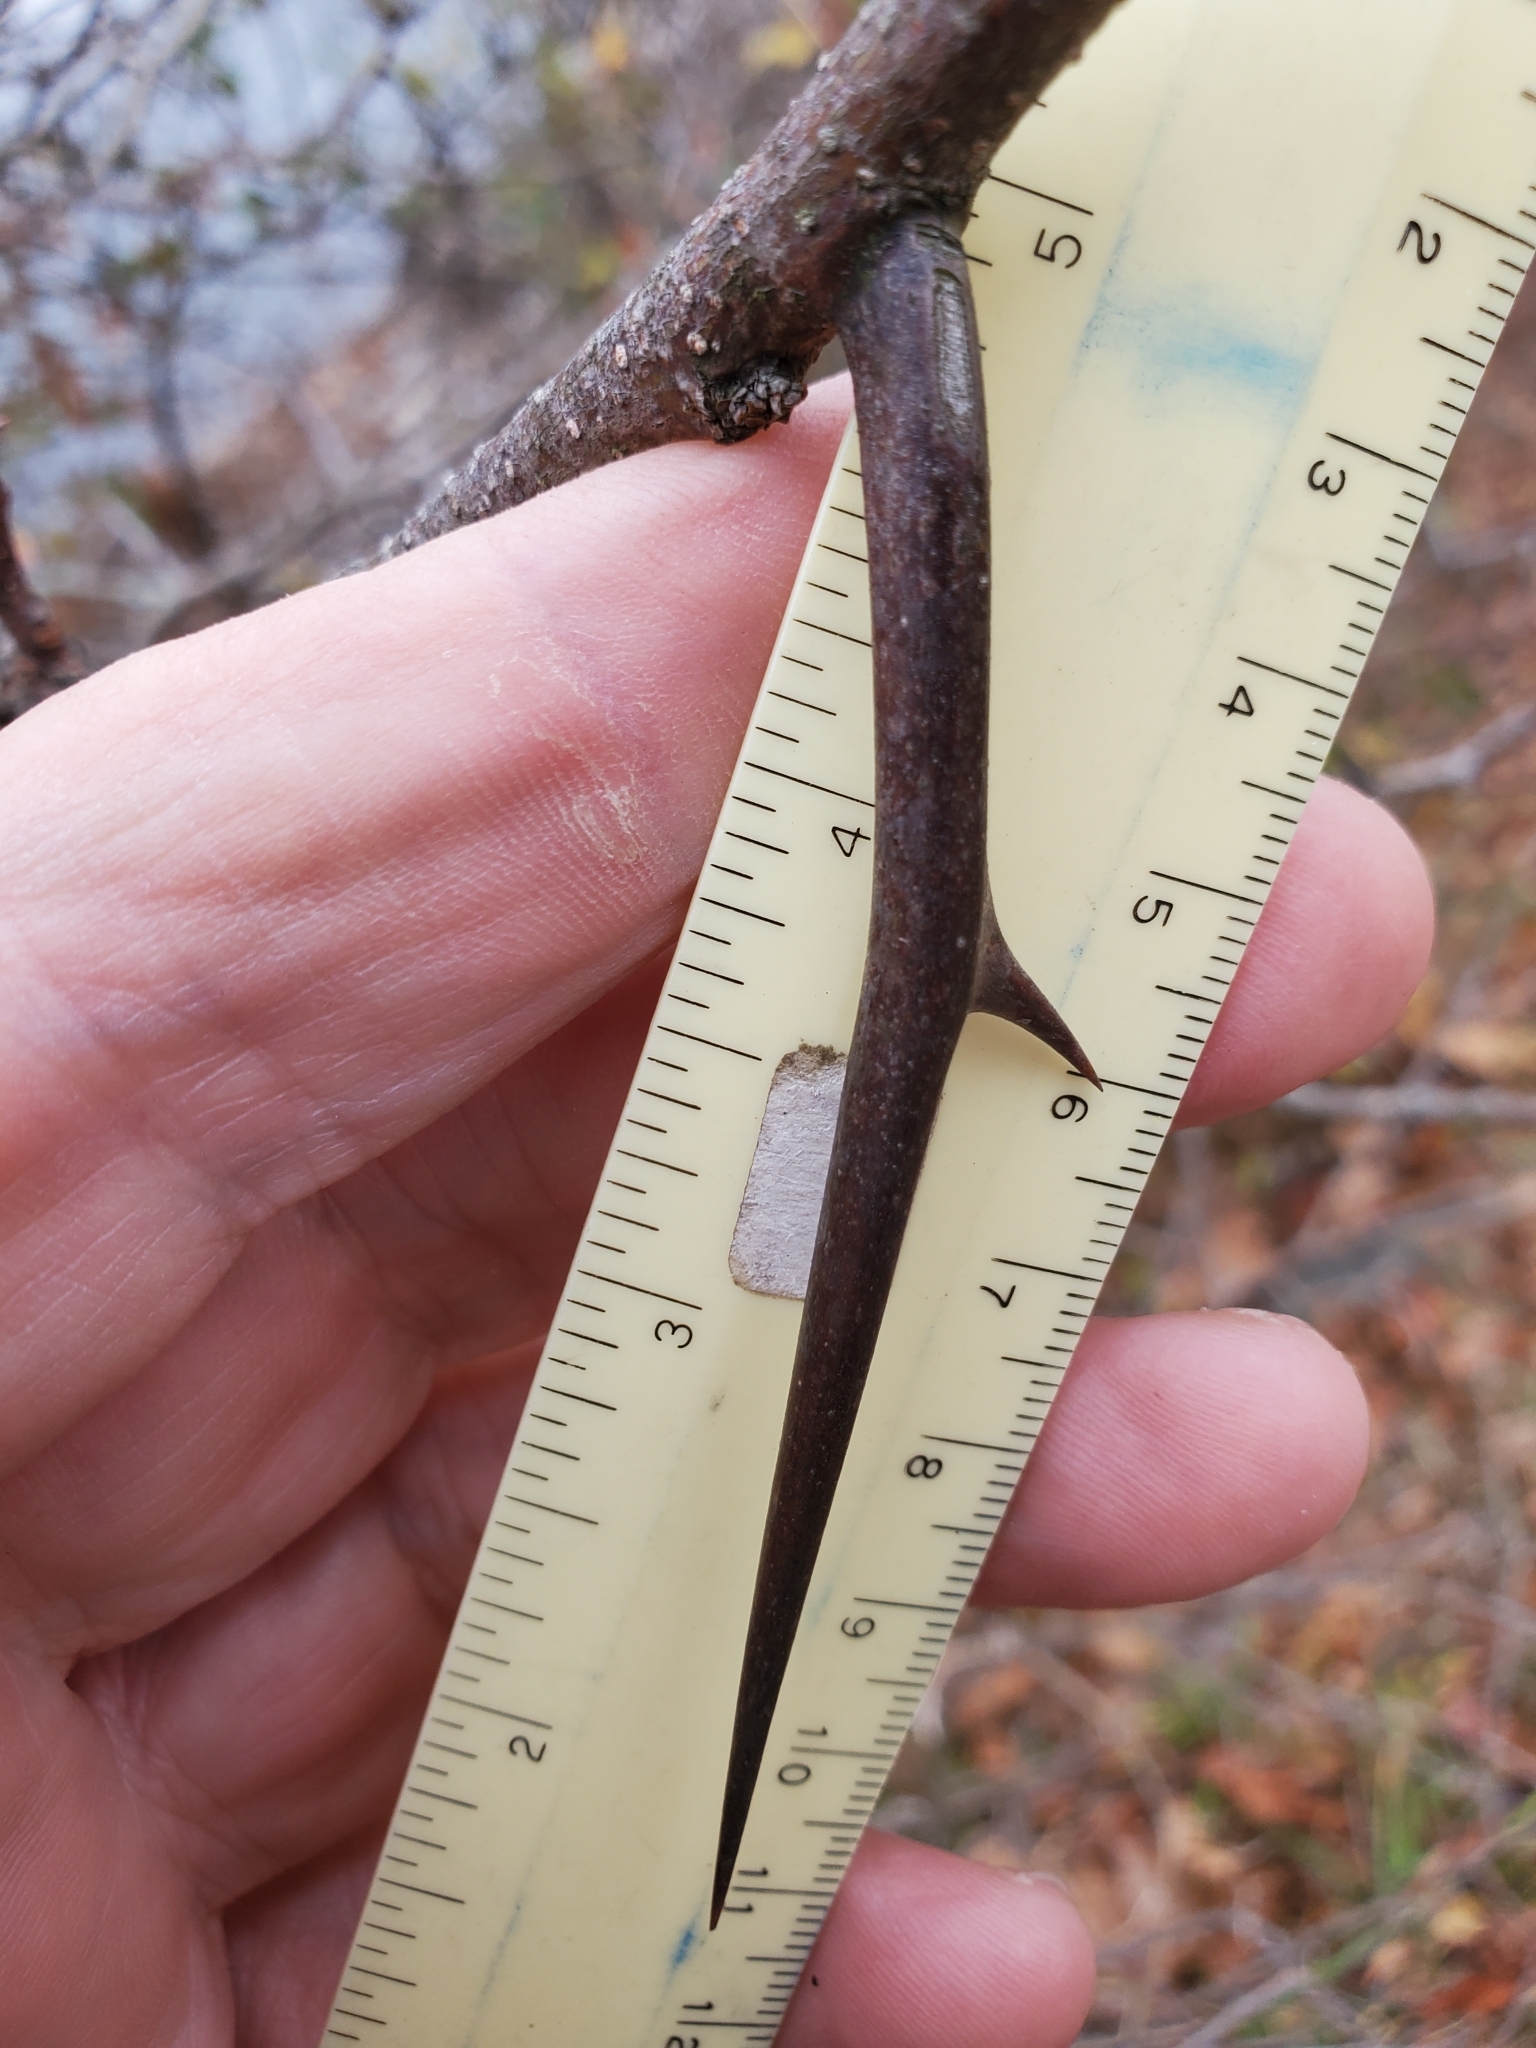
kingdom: Plantae
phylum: Tracheophyta
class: Magnoliopsida
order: Fabales
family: Fabaceae
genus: Gleditsia
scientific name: Gleditsia triacanthos
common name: Common honeylocust
